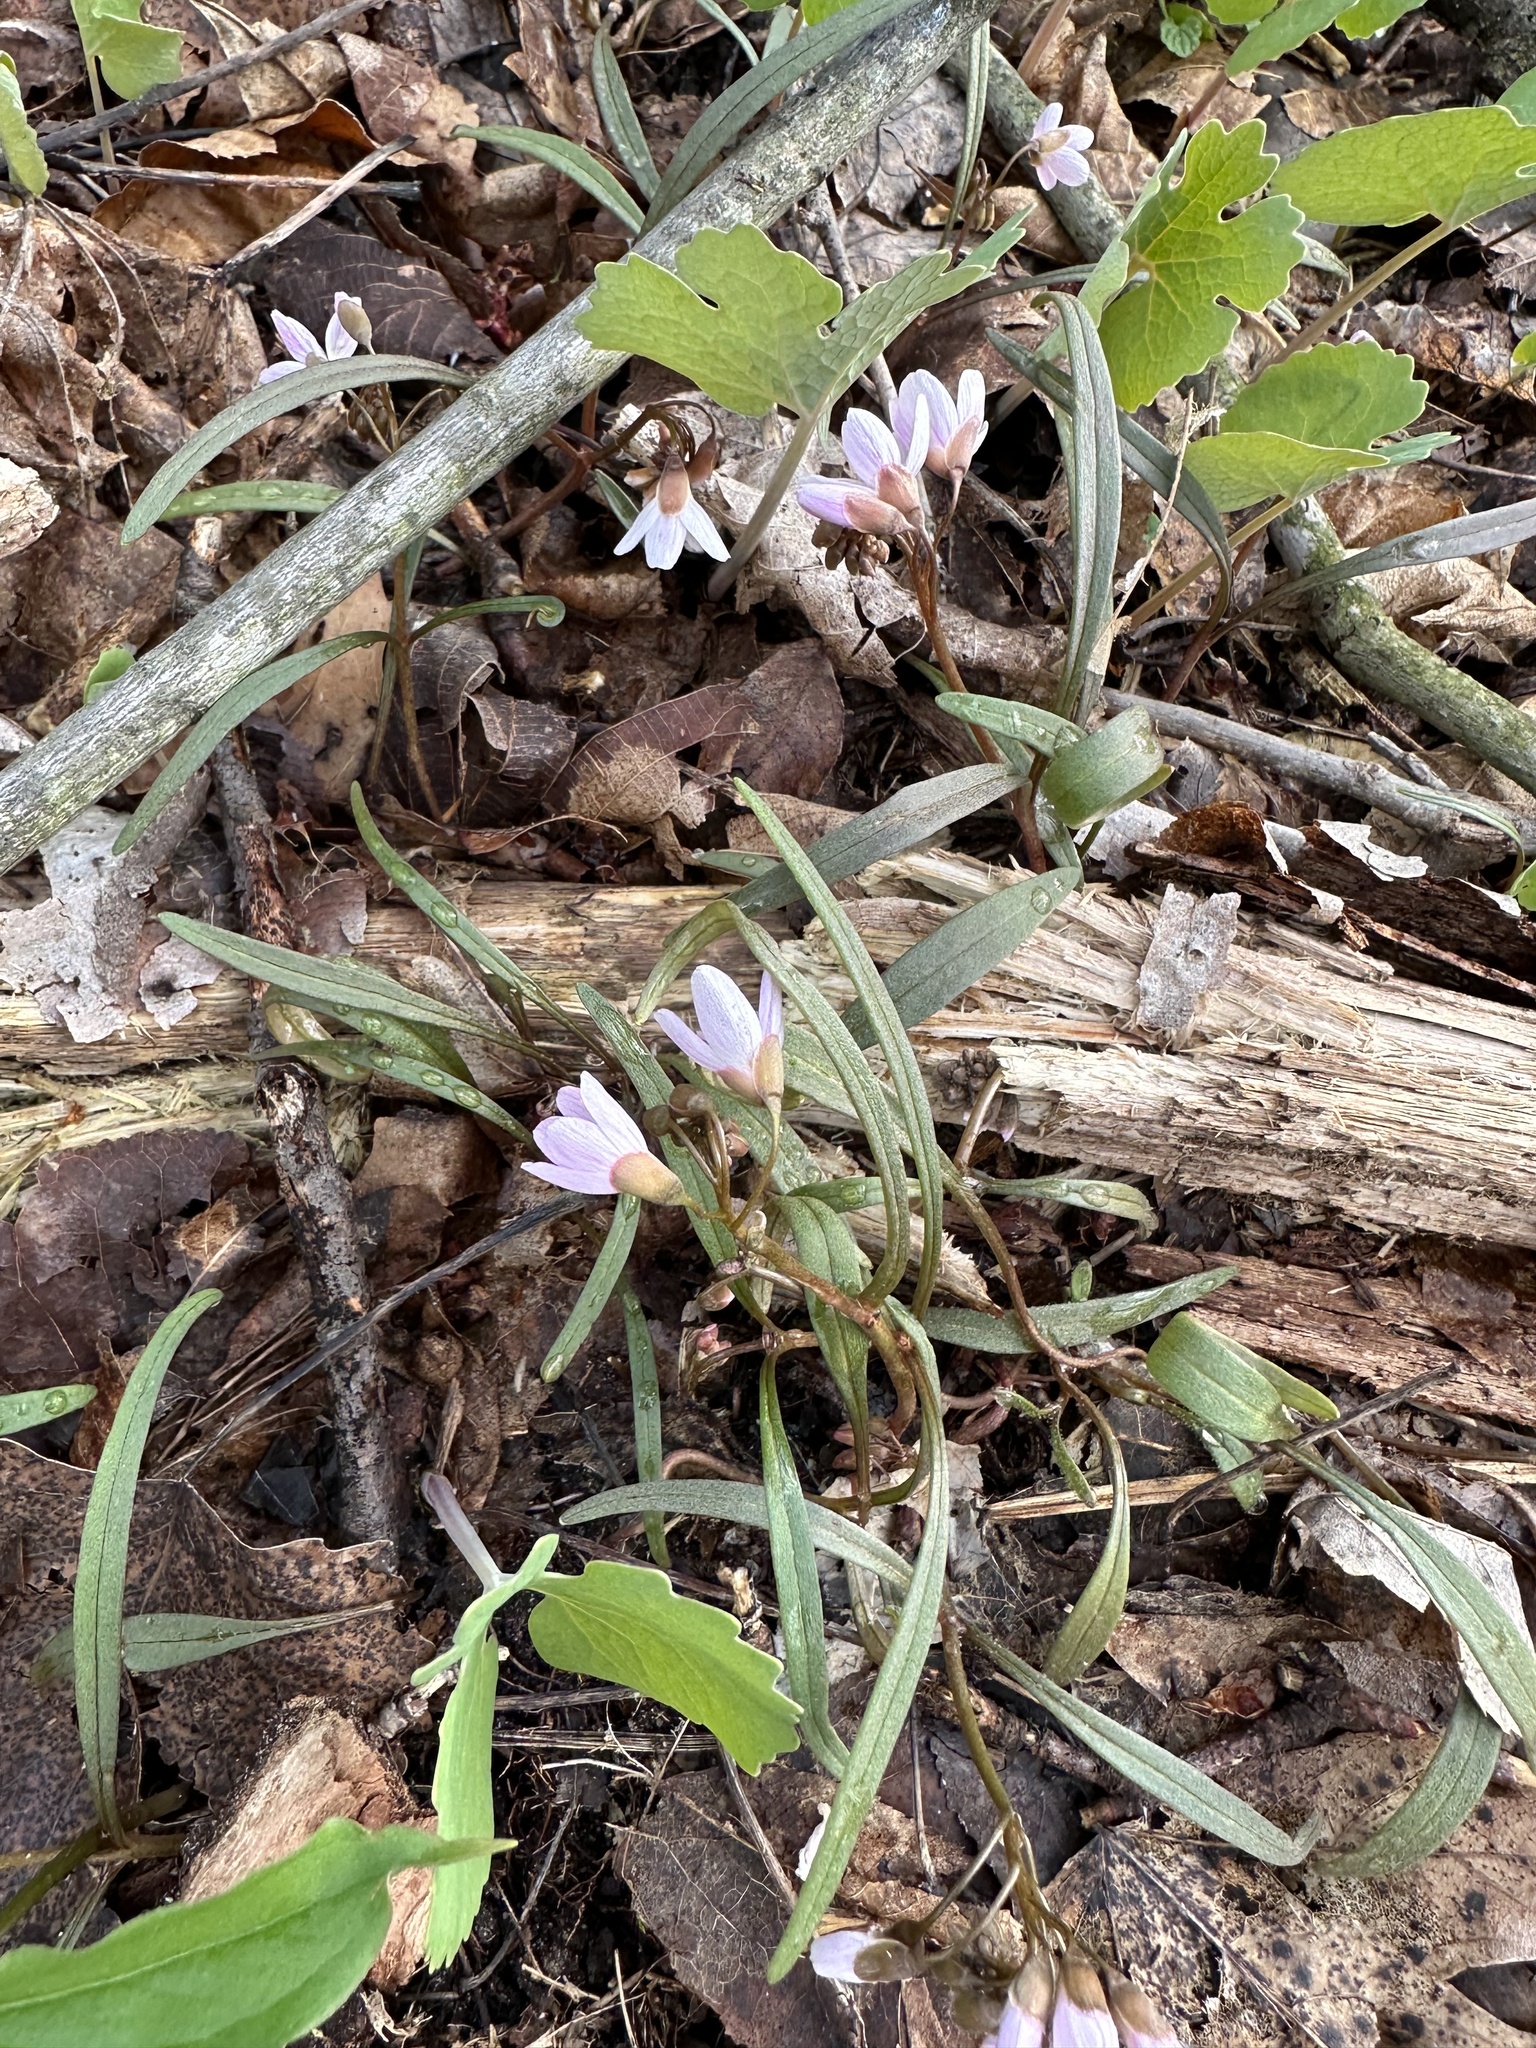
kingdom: Plantae
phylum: Tracheophyta
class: Magnoliopsida
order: Caryophyllales
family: Montiaceae
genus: Claytonia
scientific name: Claytonia virginica
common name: Virginia springbeauty
